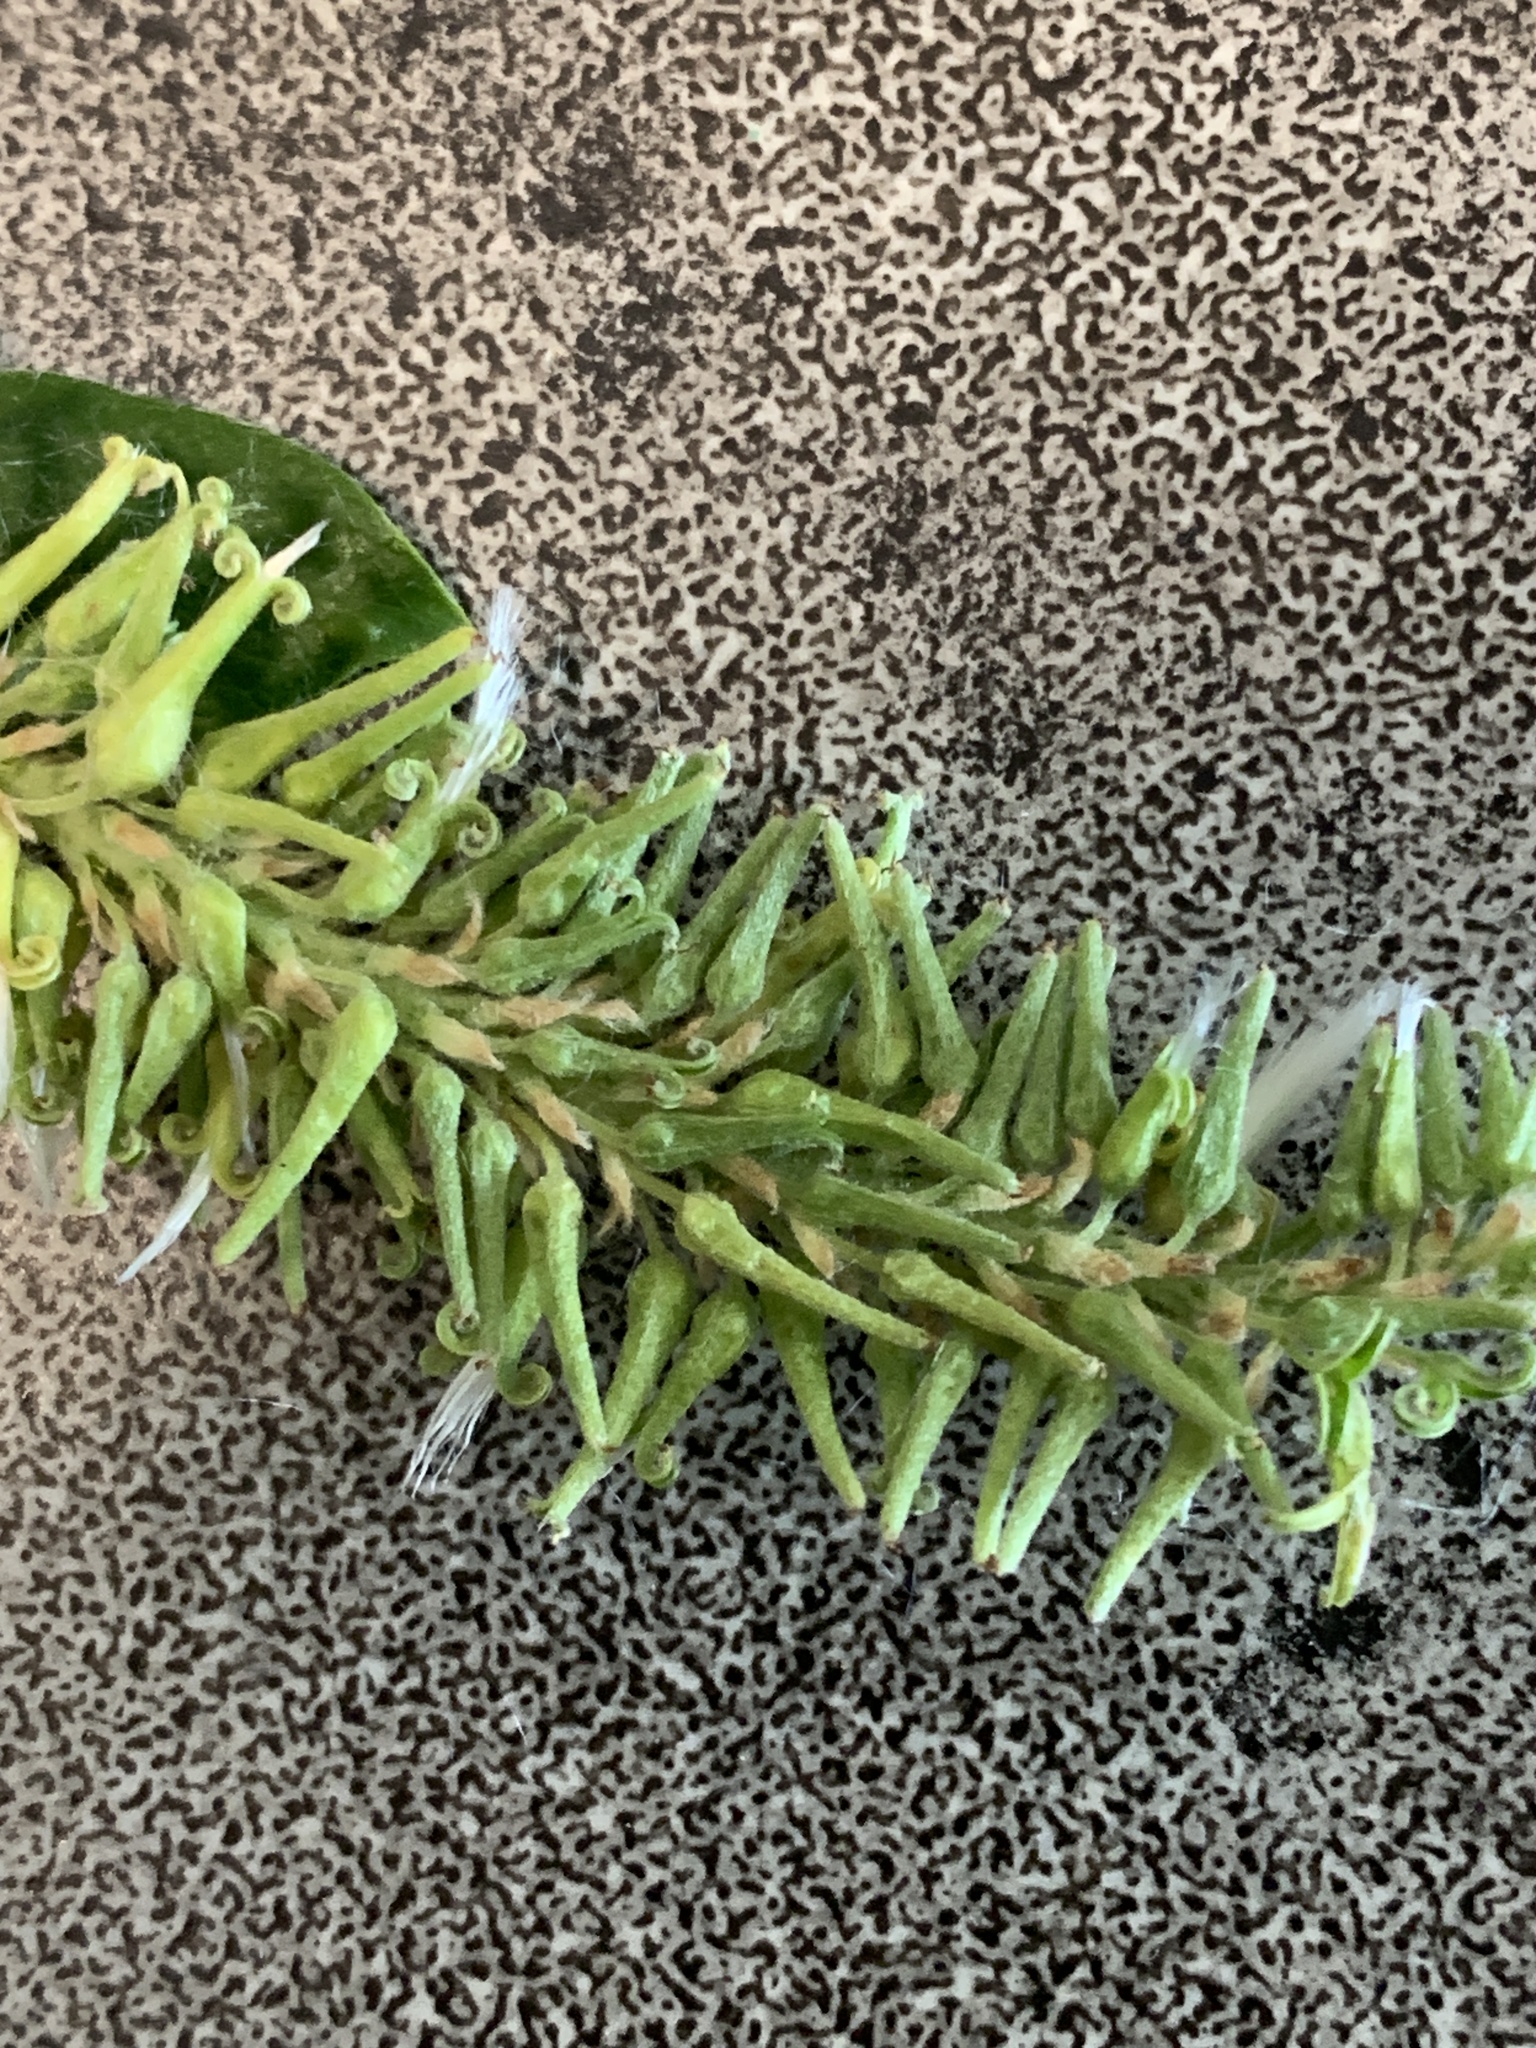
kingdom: Plantae
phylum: Tracheophyta
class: Magnoliopsida
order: Malpighiales
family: Salicaceae
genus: Salix
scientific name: Salix bebbiana
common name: Bebb's willow
